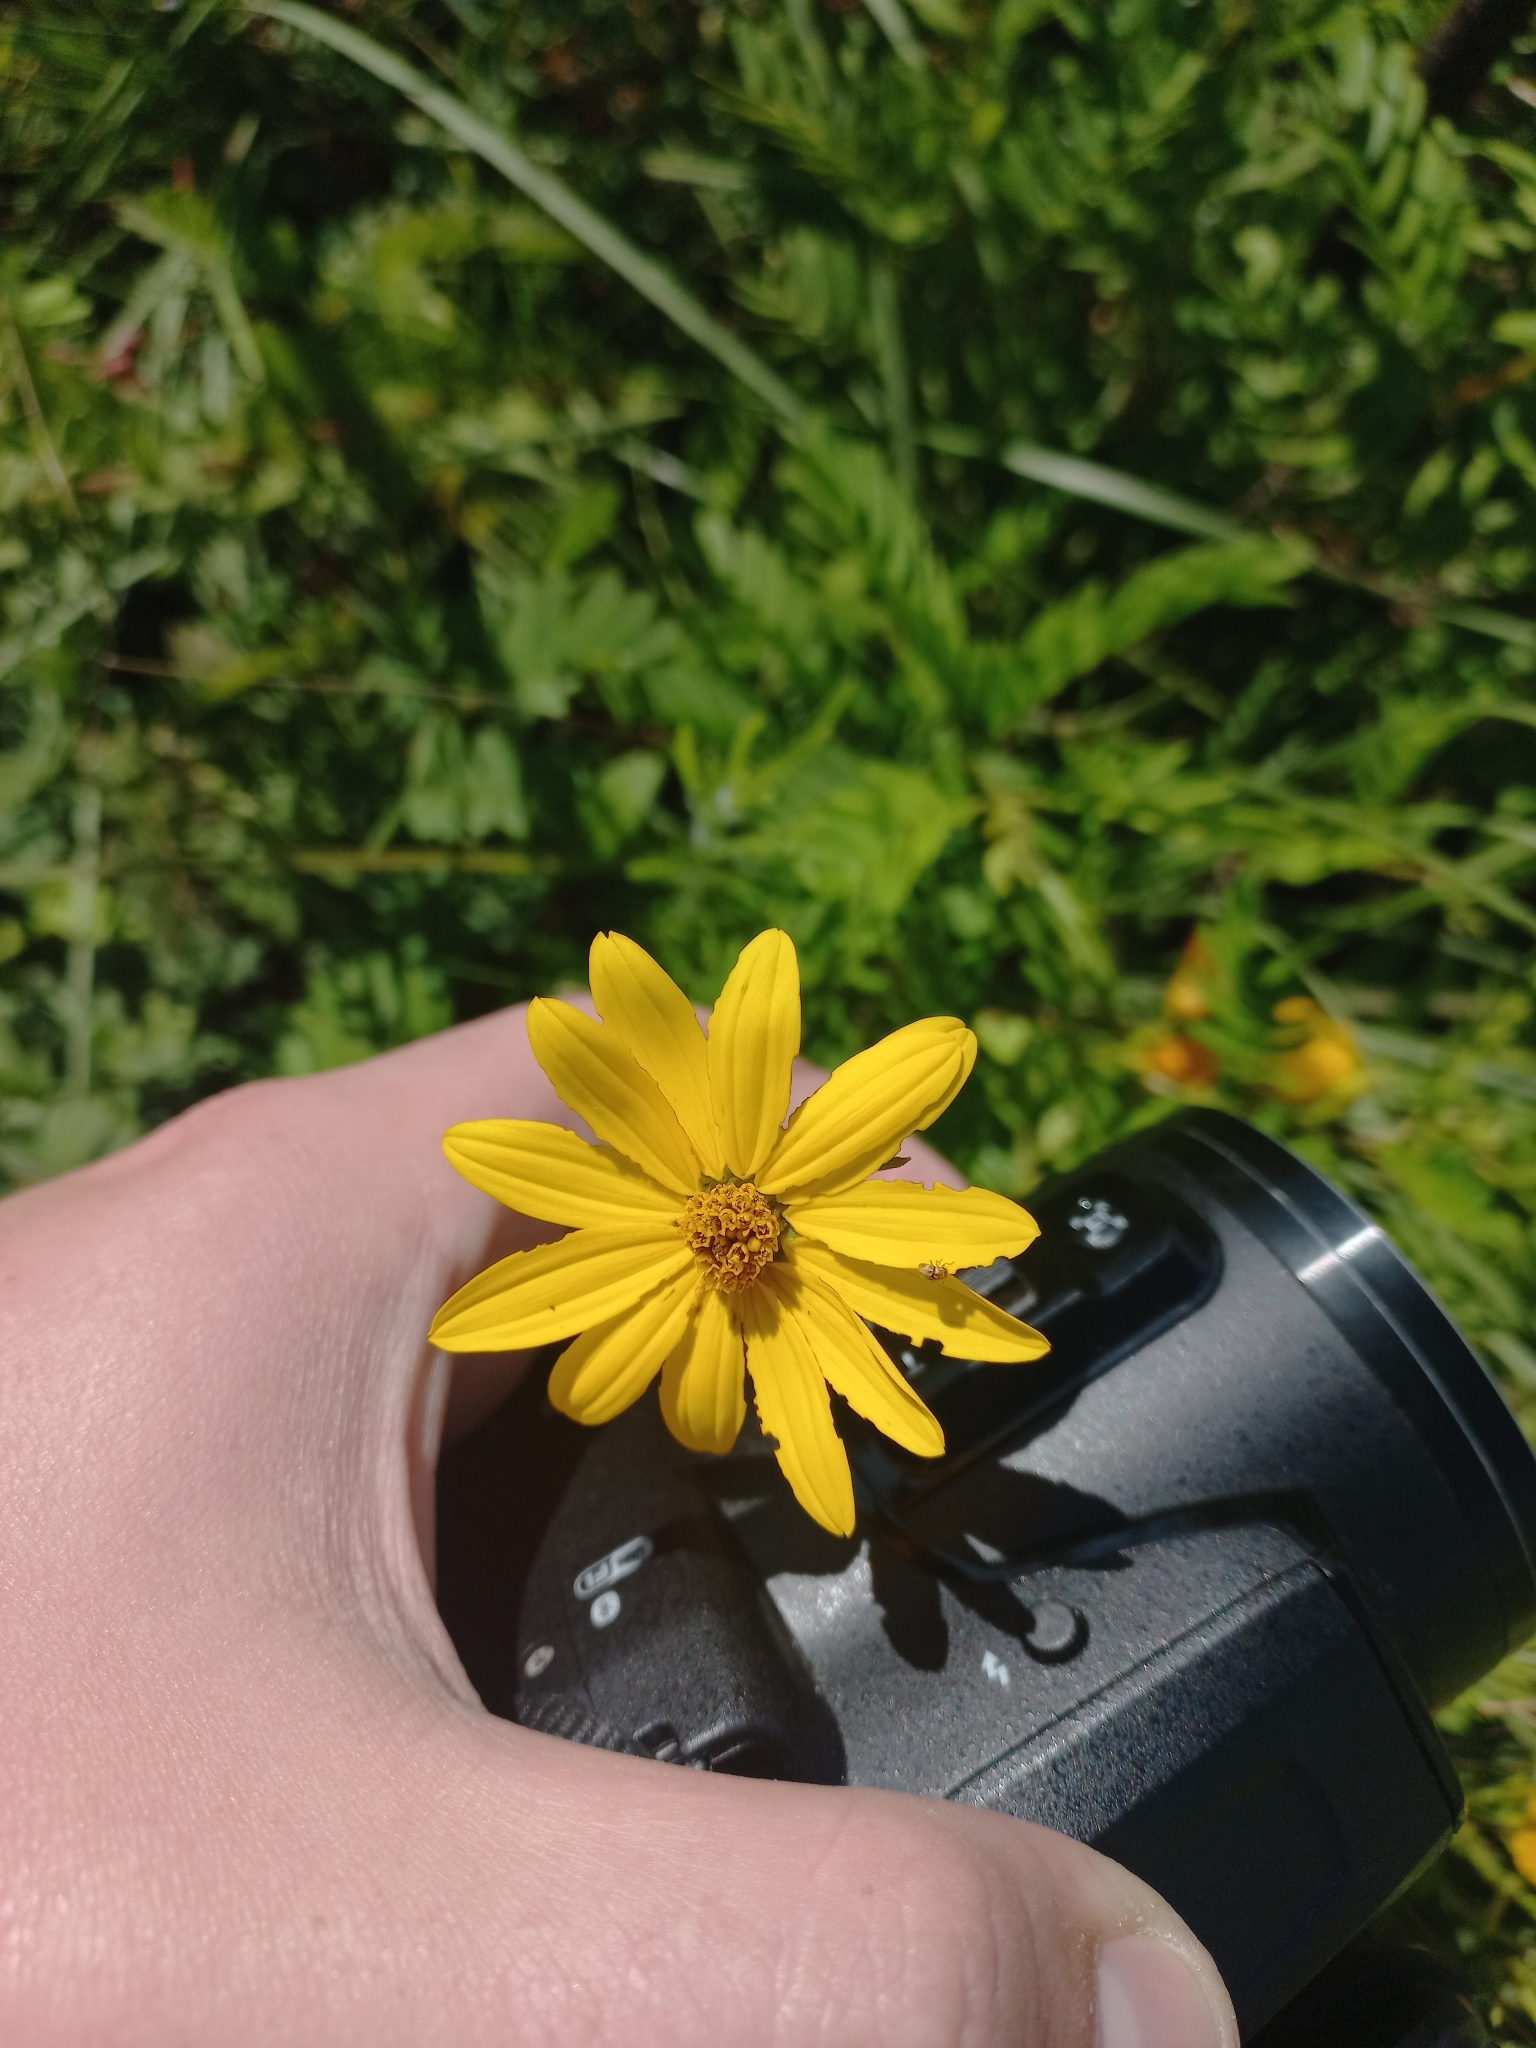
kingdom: Plantae
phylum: Tracheophyta
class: Magnoliopsida
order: Asterales
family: Asteraceae
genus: Wedelia
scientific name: Wedelia montevidensis
